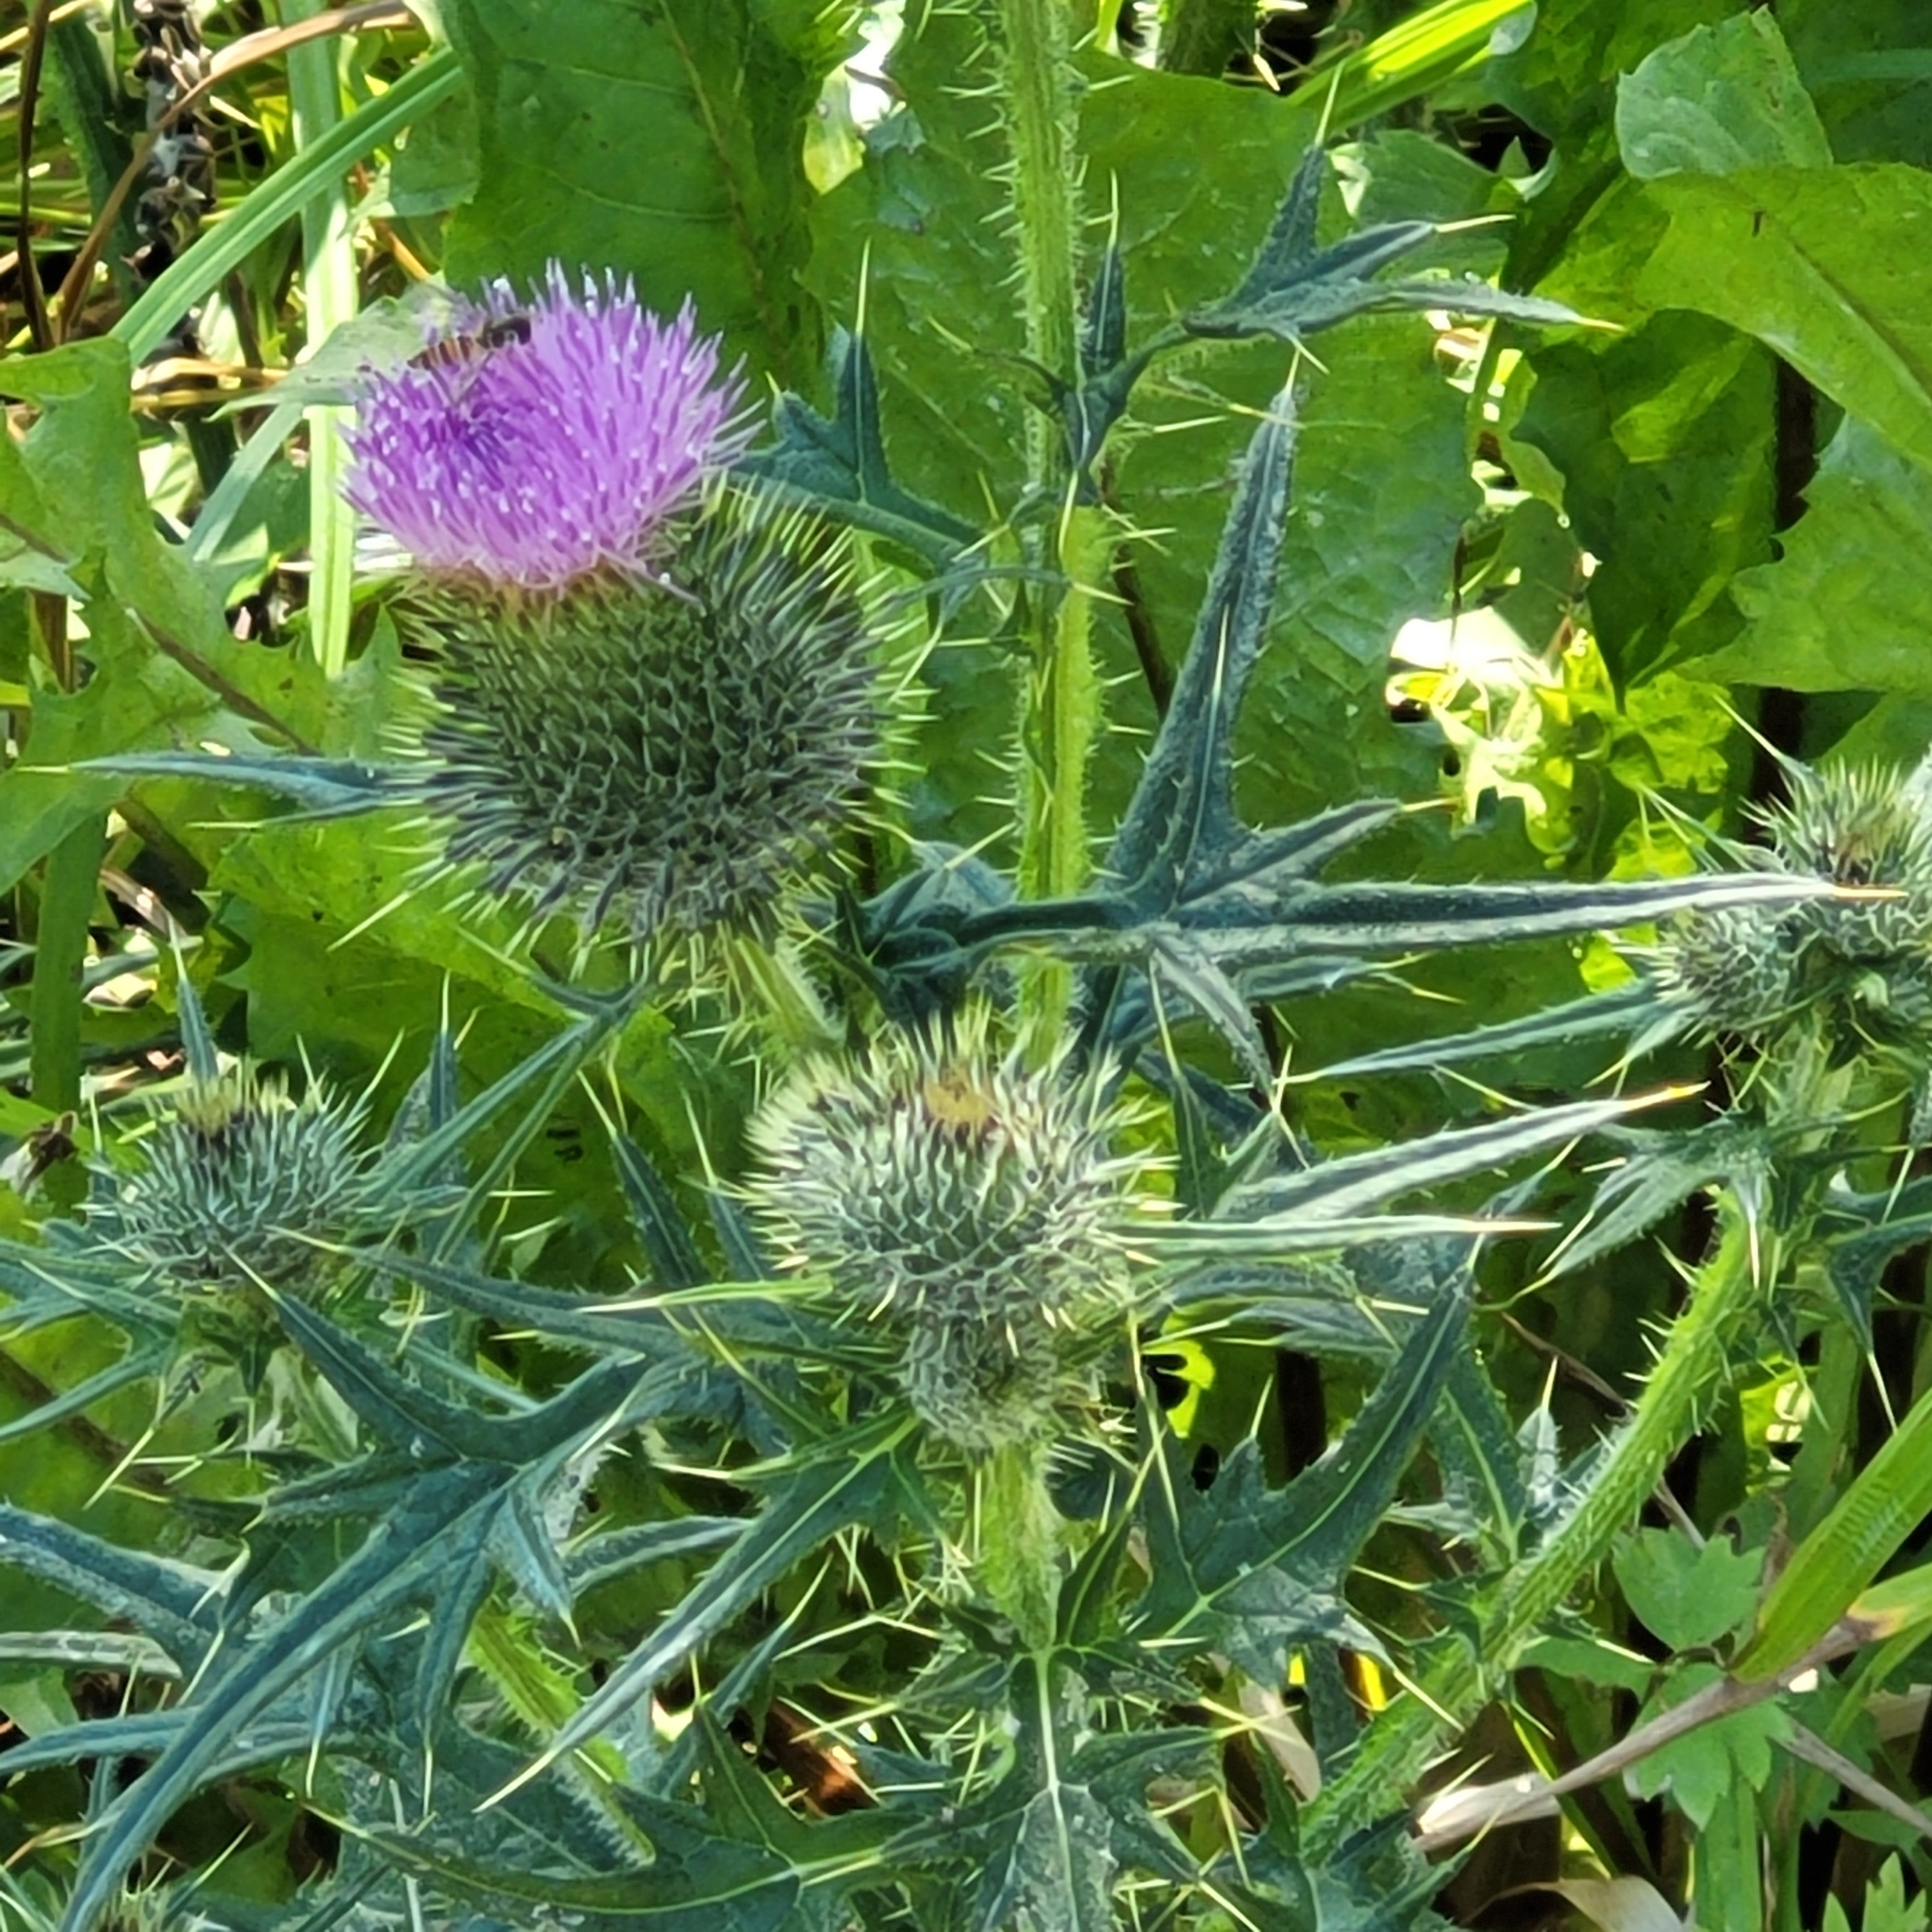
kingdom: Plantae
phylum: Tracheophyta
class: Magnoliopsida
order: Asterales
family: Asteraceae
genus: Cirsium
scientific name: Cirsium vulgare
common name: Bull thistle
